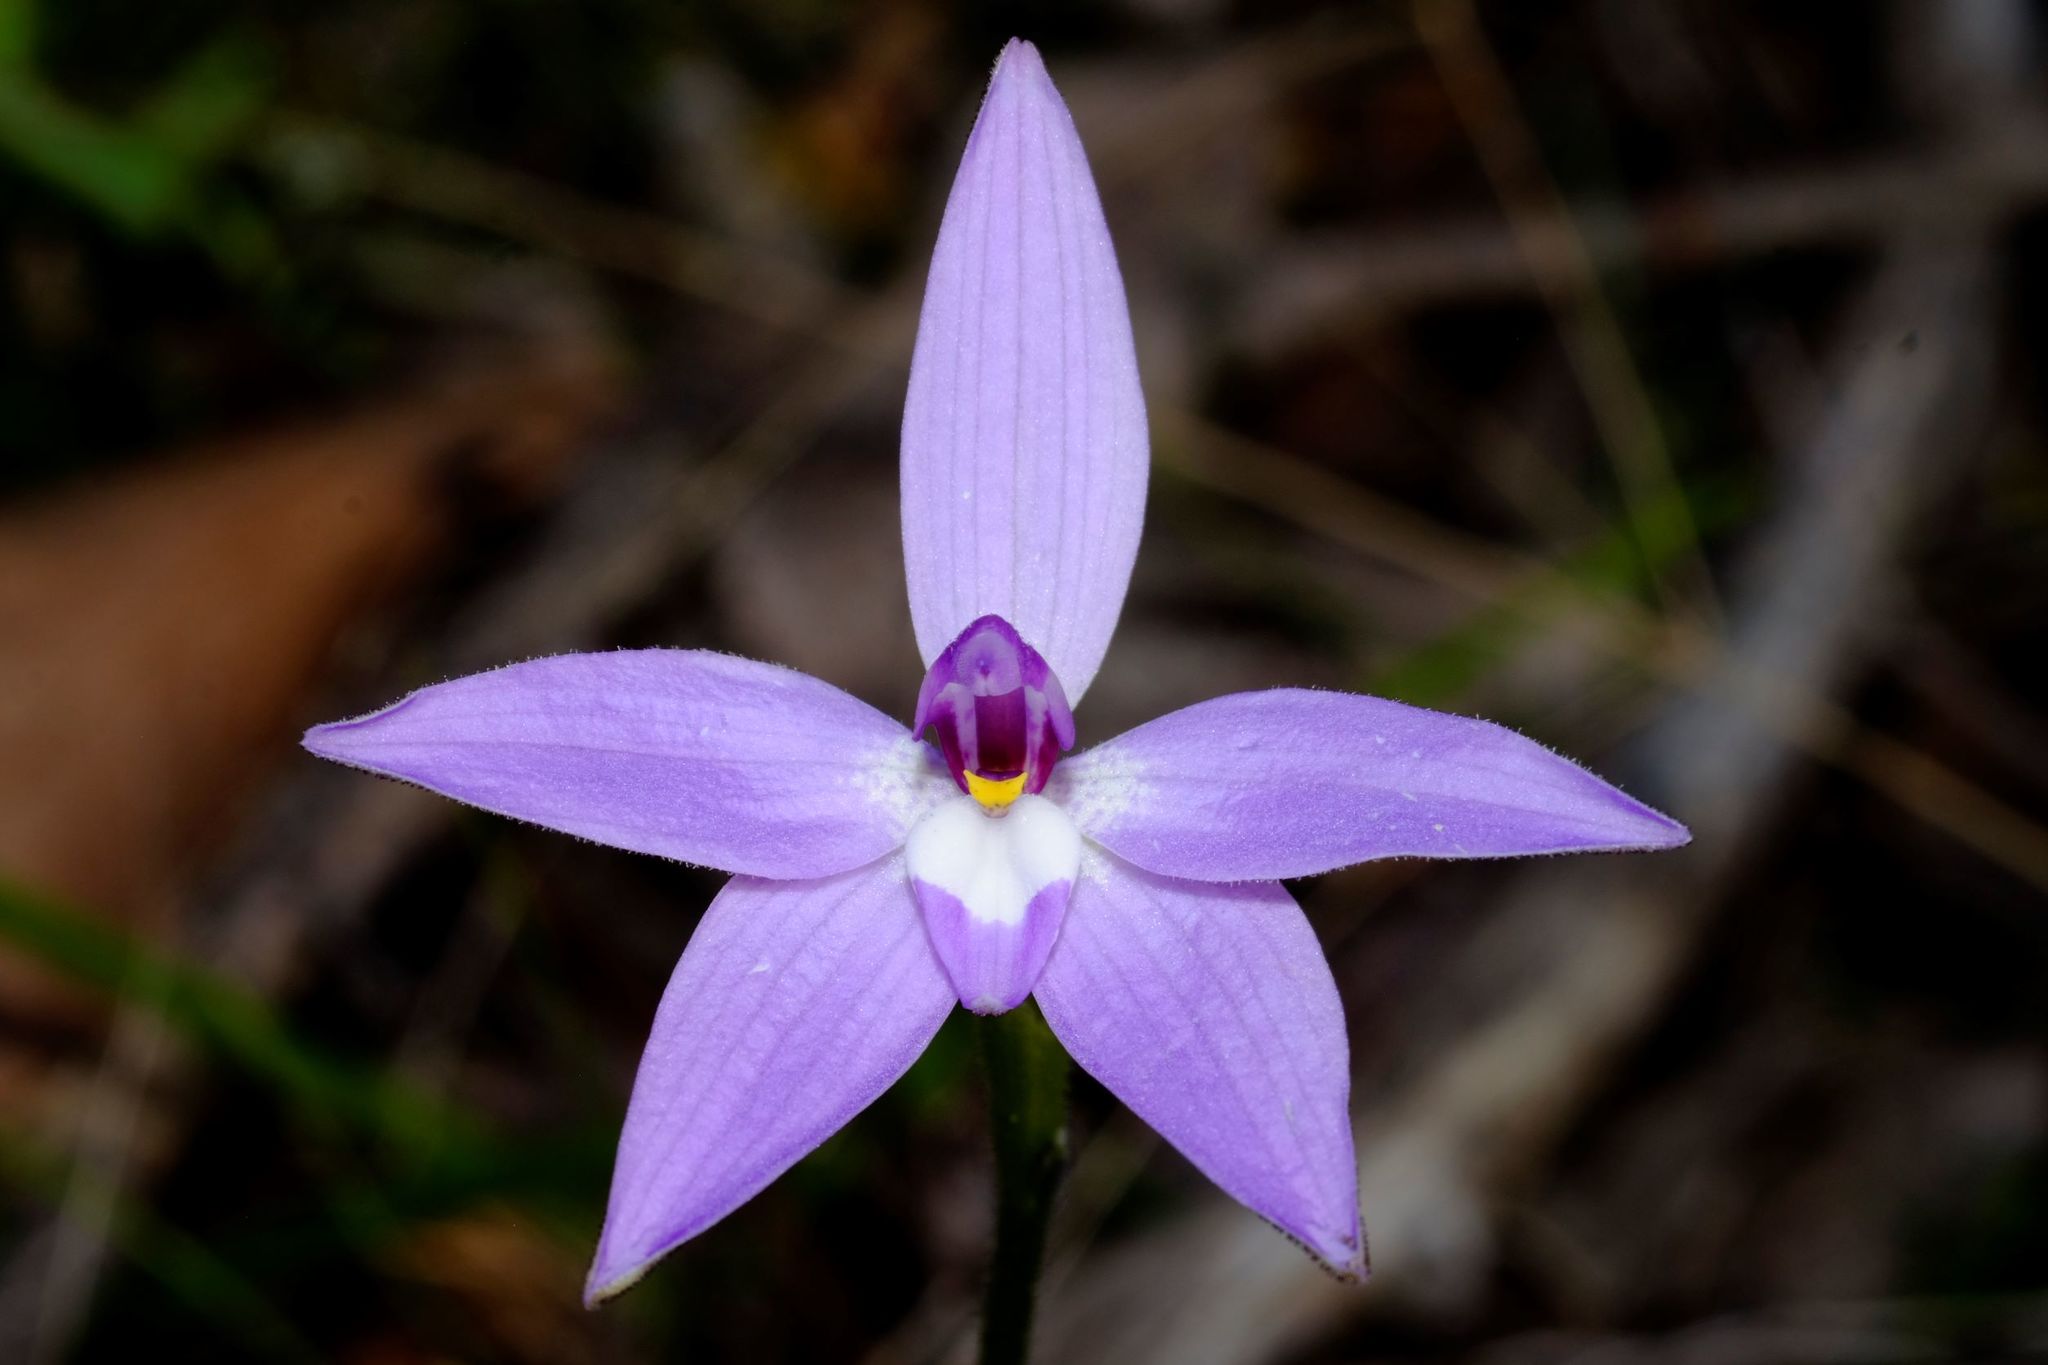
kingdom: Plantae
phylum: Tracheophyta
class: Liliopsida
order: Asparagales
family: Orchidaceae
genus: Caladenia
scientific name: Caladenia major
